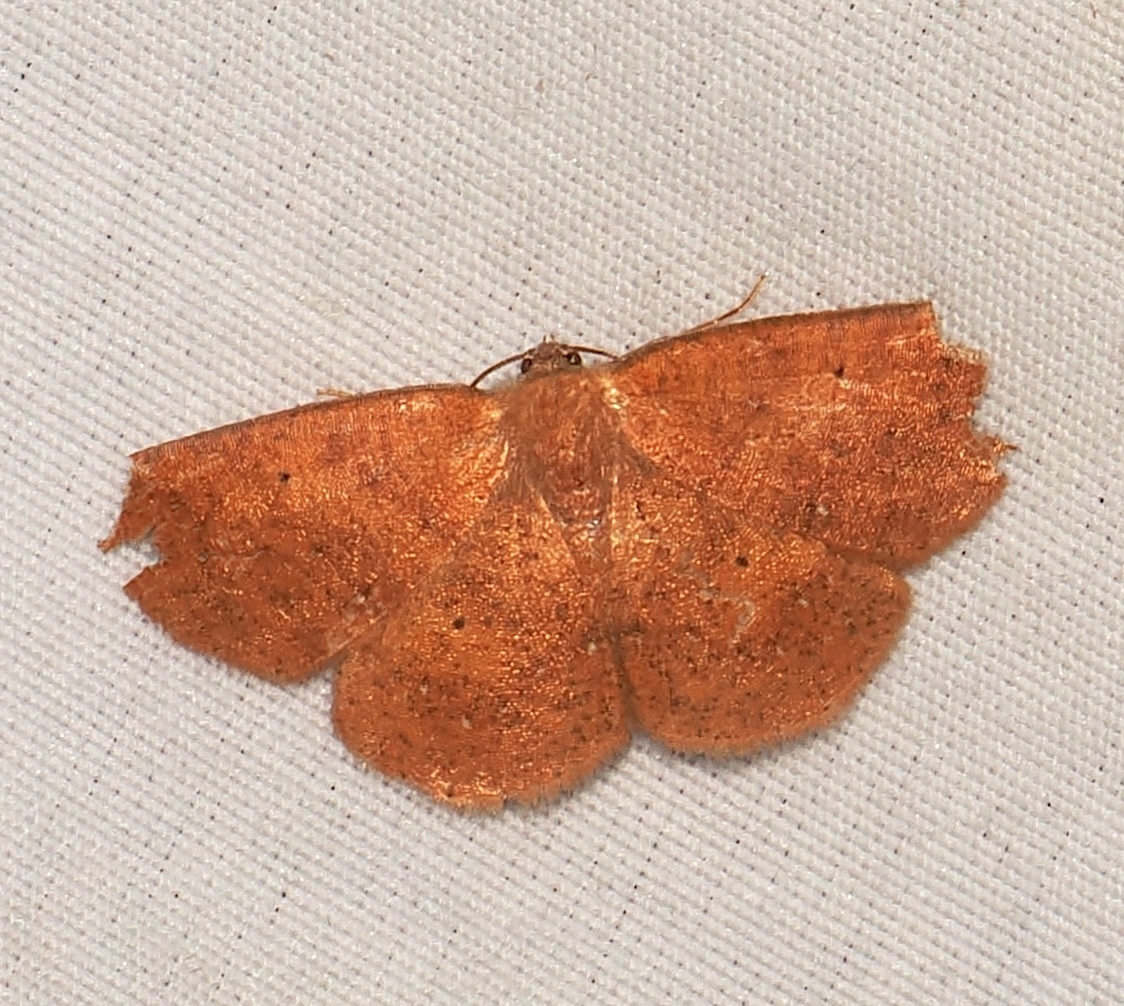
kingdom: Animalia
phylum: Arthropoda
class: Insecta
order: Lepidoptera
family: Geometridae
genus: Mimomma
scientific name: Mimomma ochriplaga
